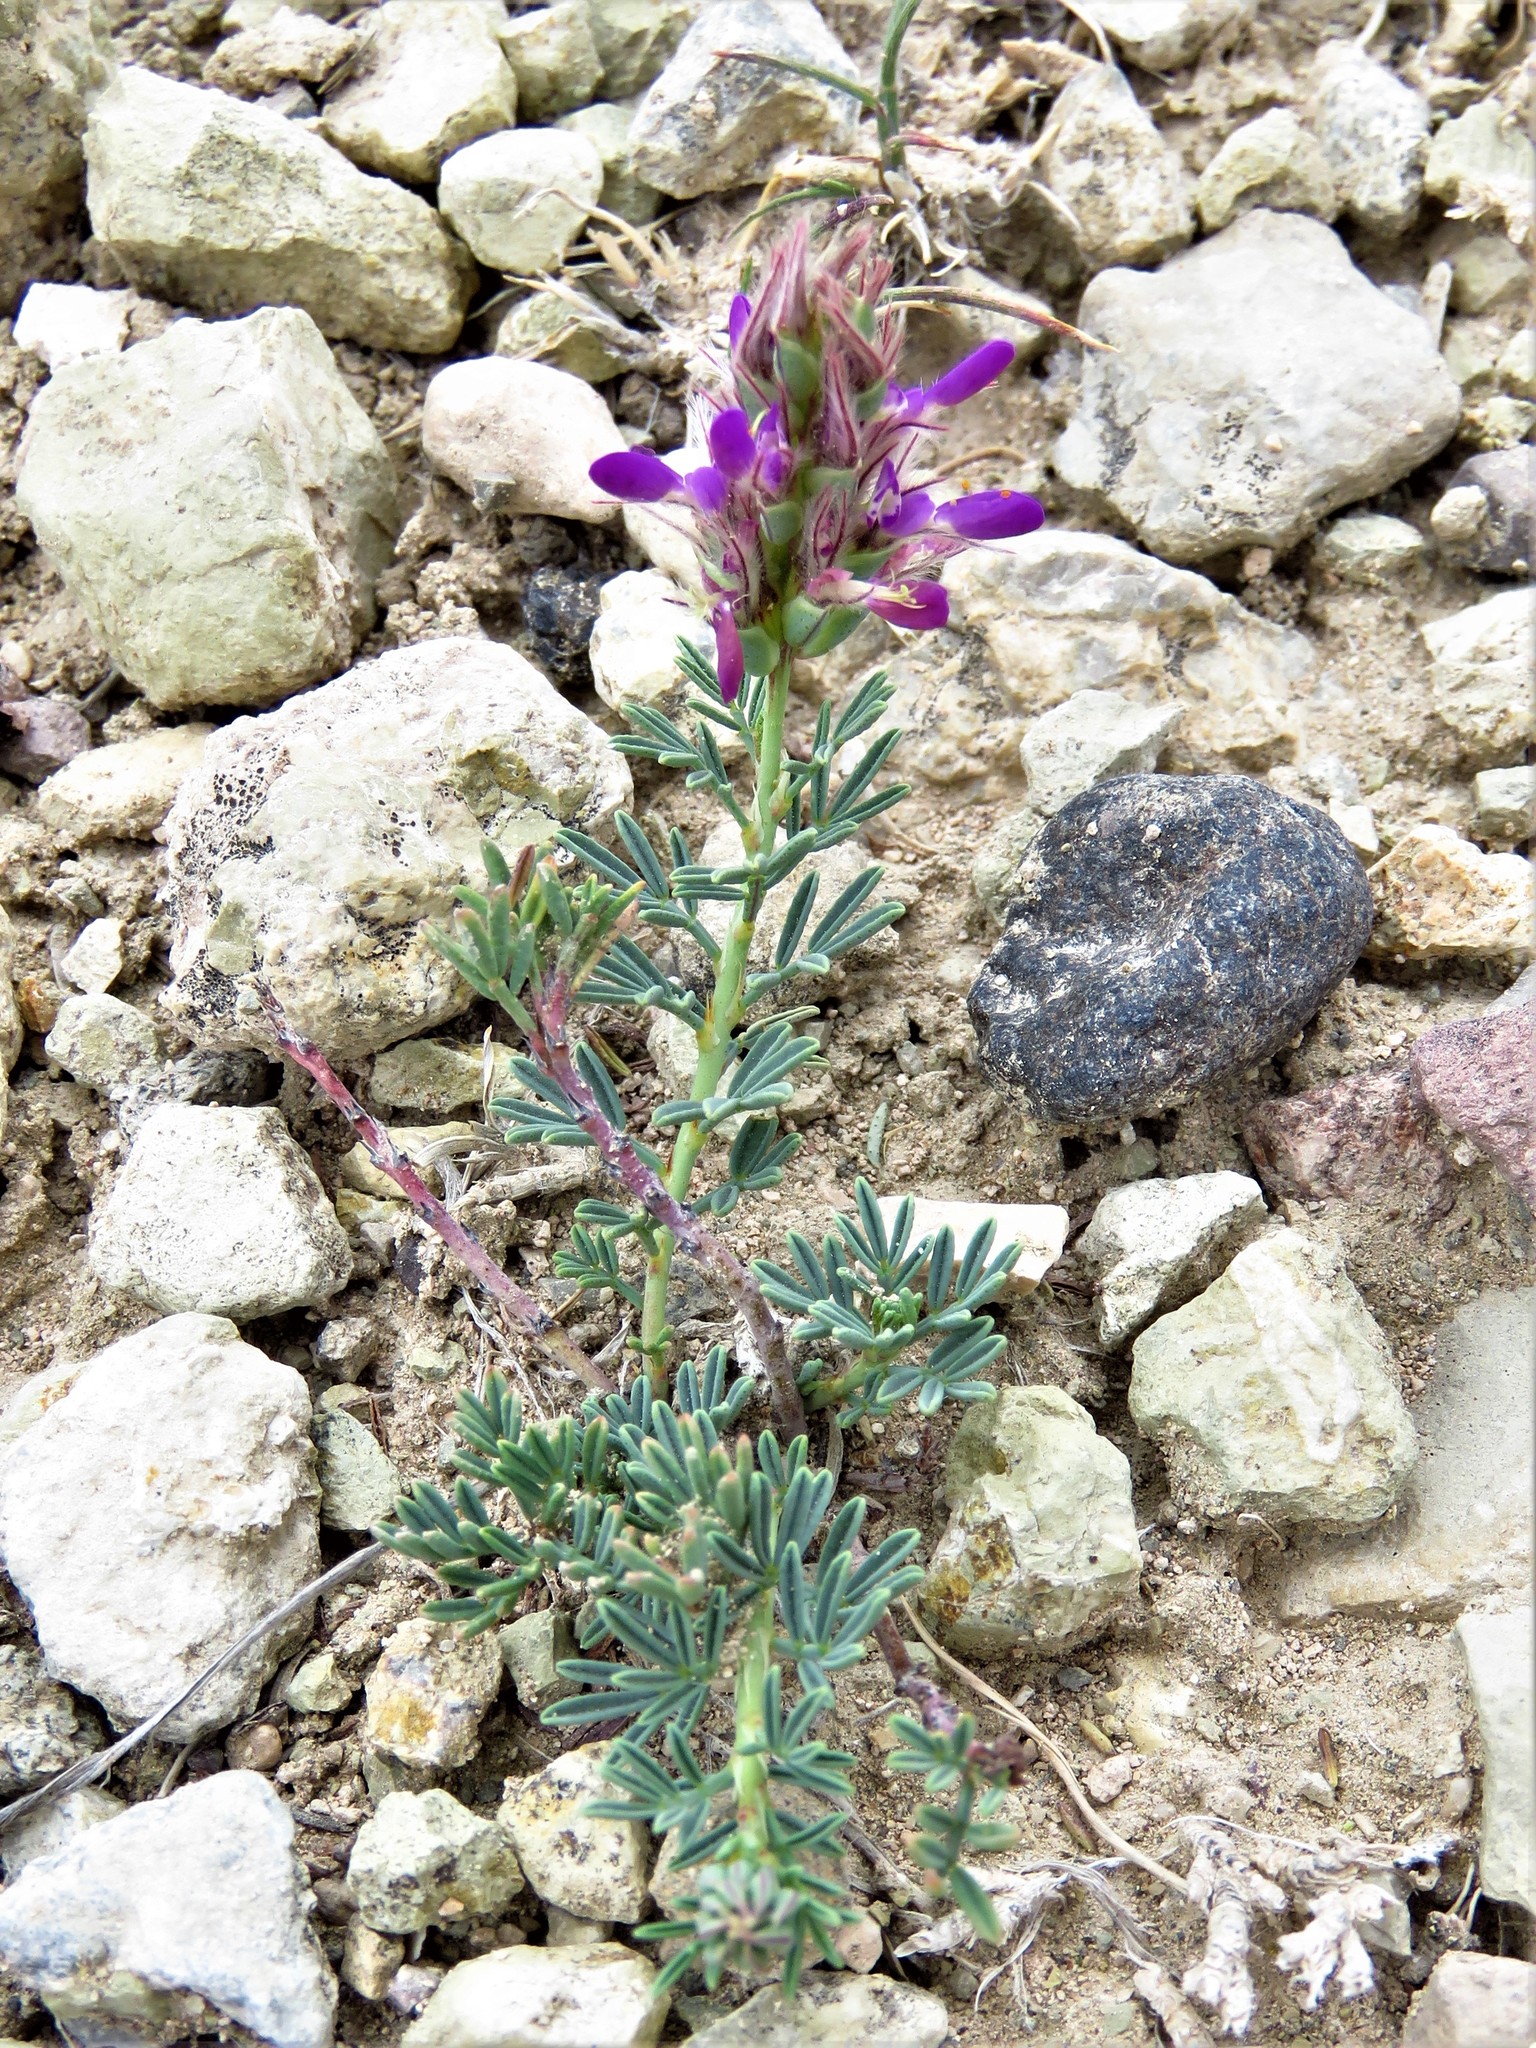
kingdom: Plantae
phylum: Tracheophyta
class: Magnoliopsida
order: Fabales
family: Fabaceae
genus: Dalea
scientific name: Dalea pogonathera
